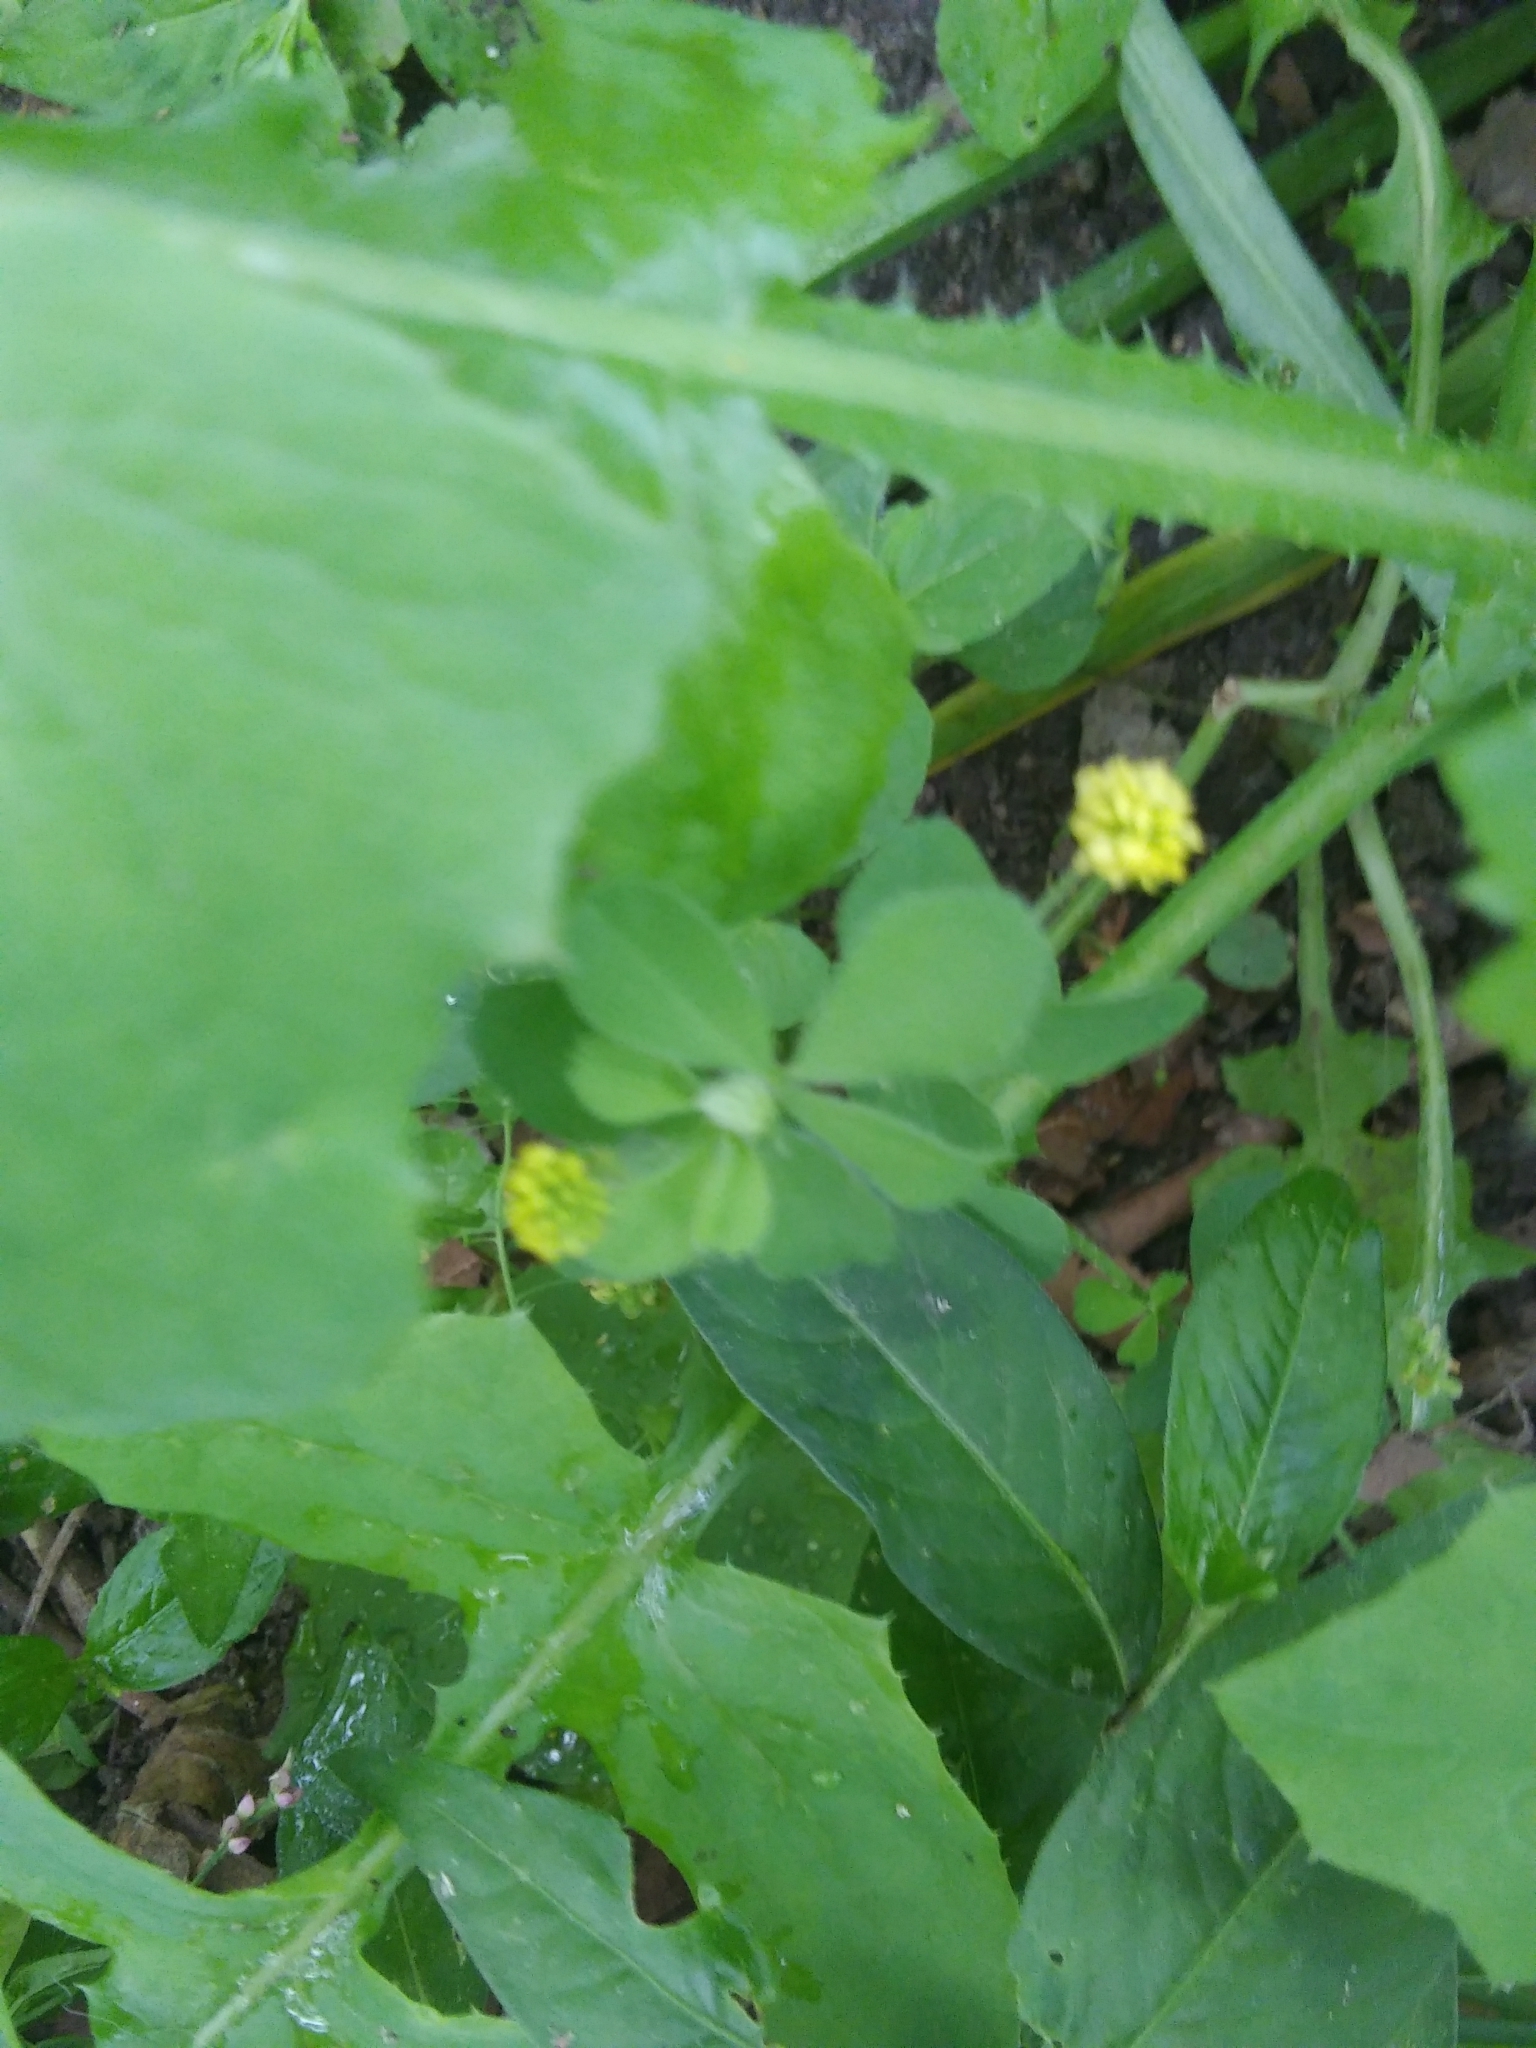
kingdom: Plantae
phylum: Tracheophyta
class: Magnoliopsida
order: Fabales
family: Fabaceae
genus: Medicago
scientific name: Medicago lupulina
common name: Black medick
